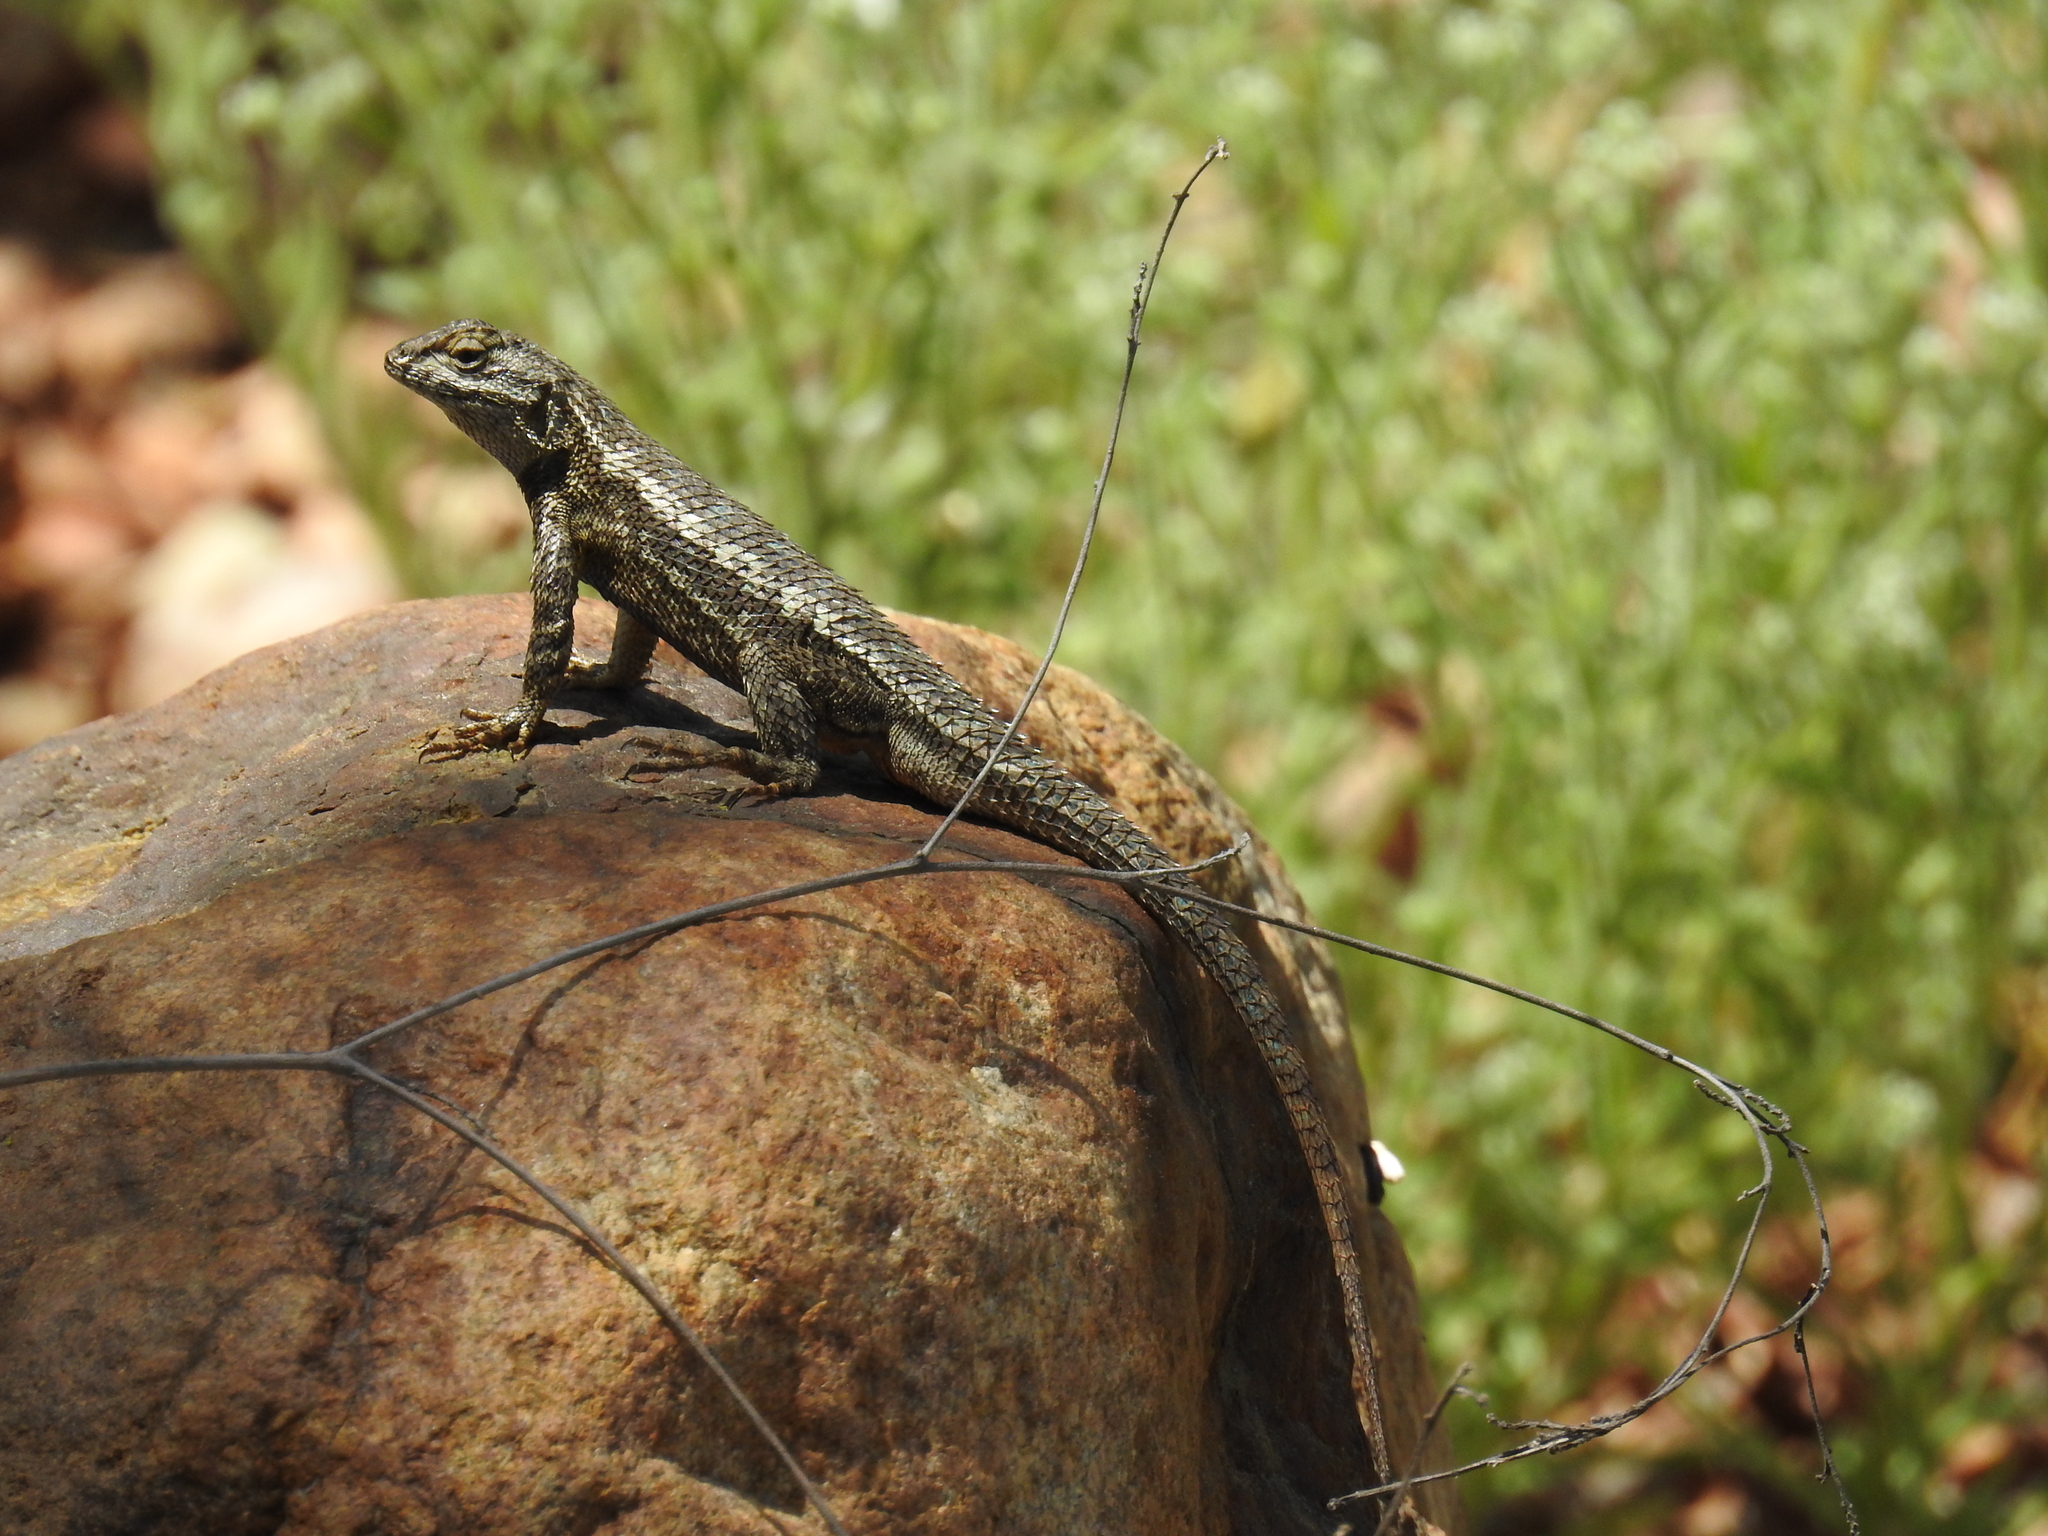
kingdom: Animalia
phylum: Chordata
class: Squamata
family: Phrynosomatidae
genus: Sceloporus
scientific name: Sceloporus occidentalis
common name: Western fence lizard
